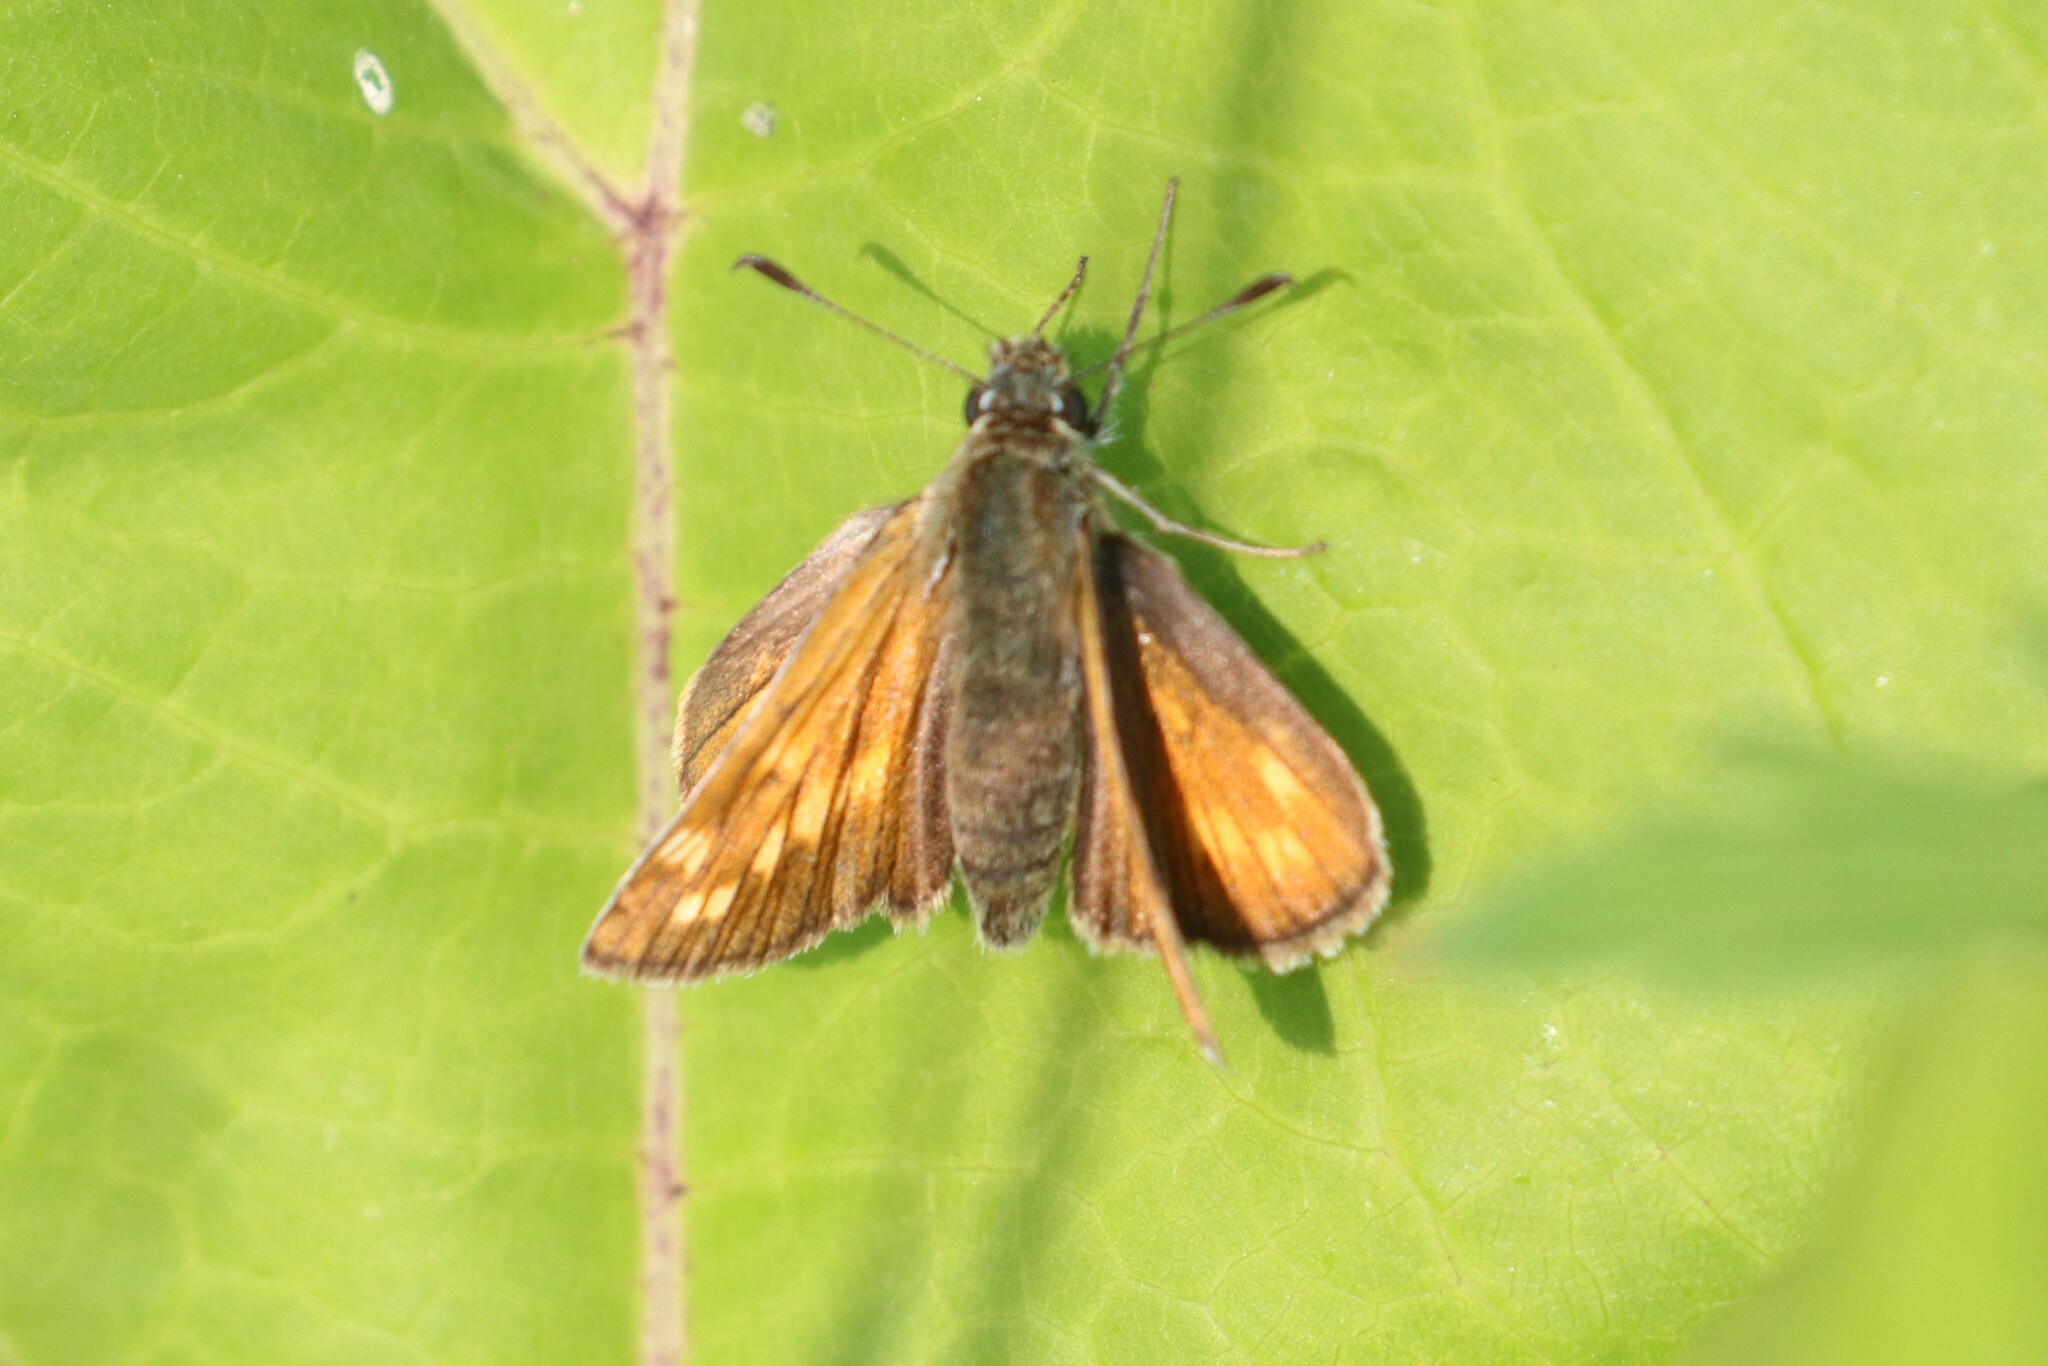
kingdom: Animalia
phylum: Arthropoda
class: Insecta
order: Lepidoptera
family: Hesperiidae
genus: Ochlodes
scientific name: Ochlodes venata
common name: Large skipper
